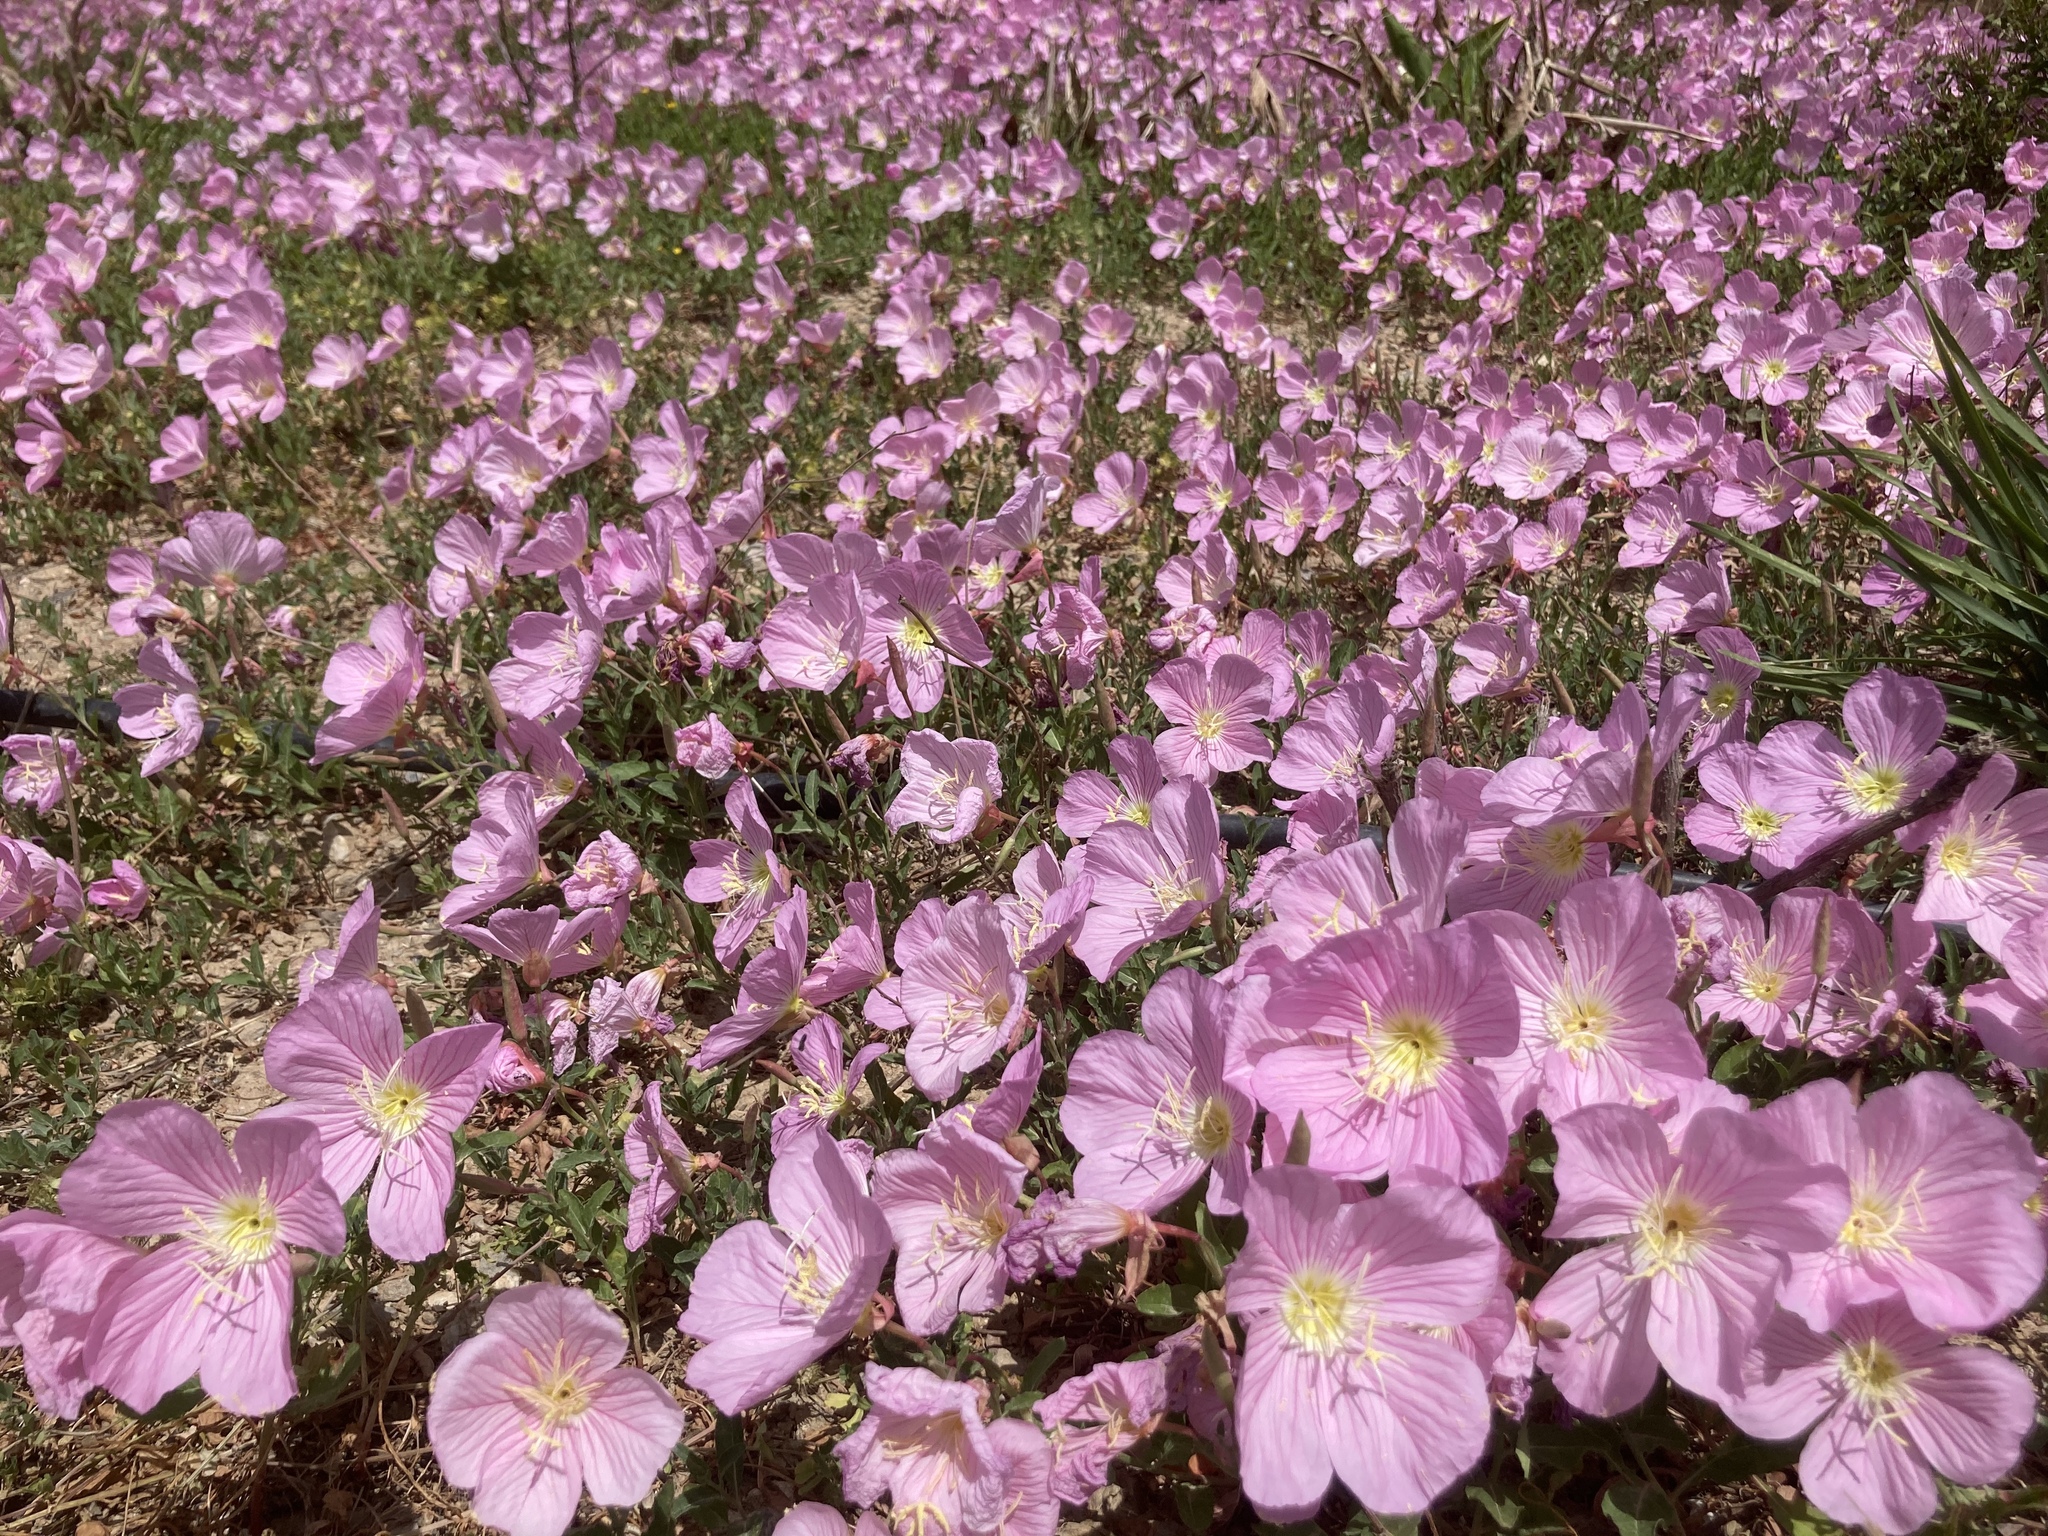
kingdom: Plantae
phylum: Tracheophyta
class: Magnoliopsida
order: Myrtales
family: Onagraceae
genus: Oenothera
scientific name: Oenothera speciosa
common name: White evening-primrose
